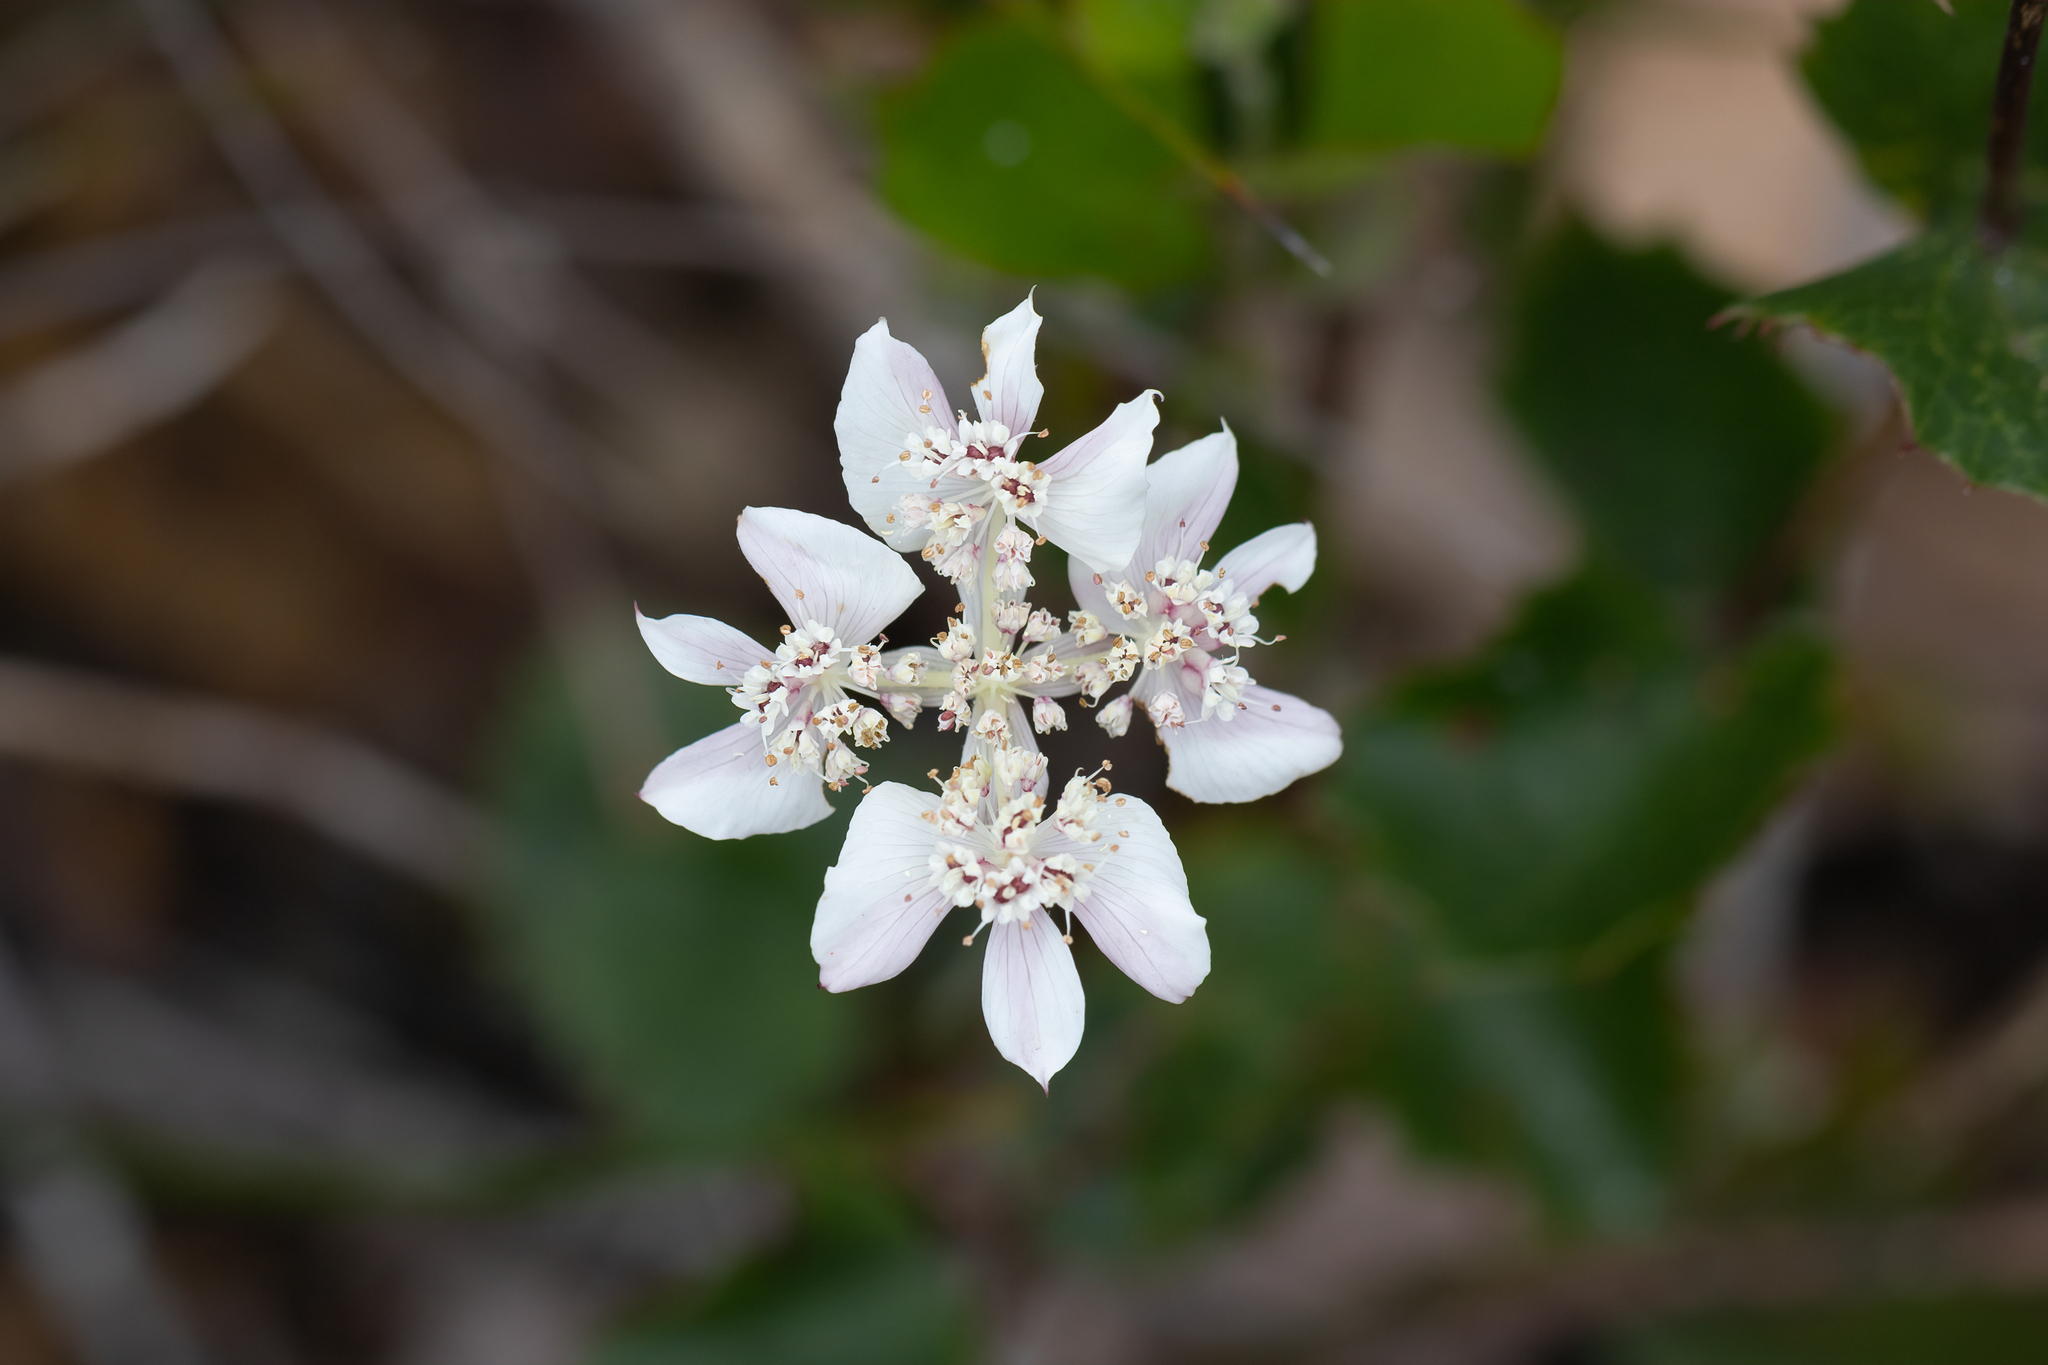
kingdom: Plantae
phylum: Tracheophyta
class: Magnoliopsida
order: Apiales
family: Apiaceae
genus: Xanthosia
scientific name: Xanthosia rotundifolia
